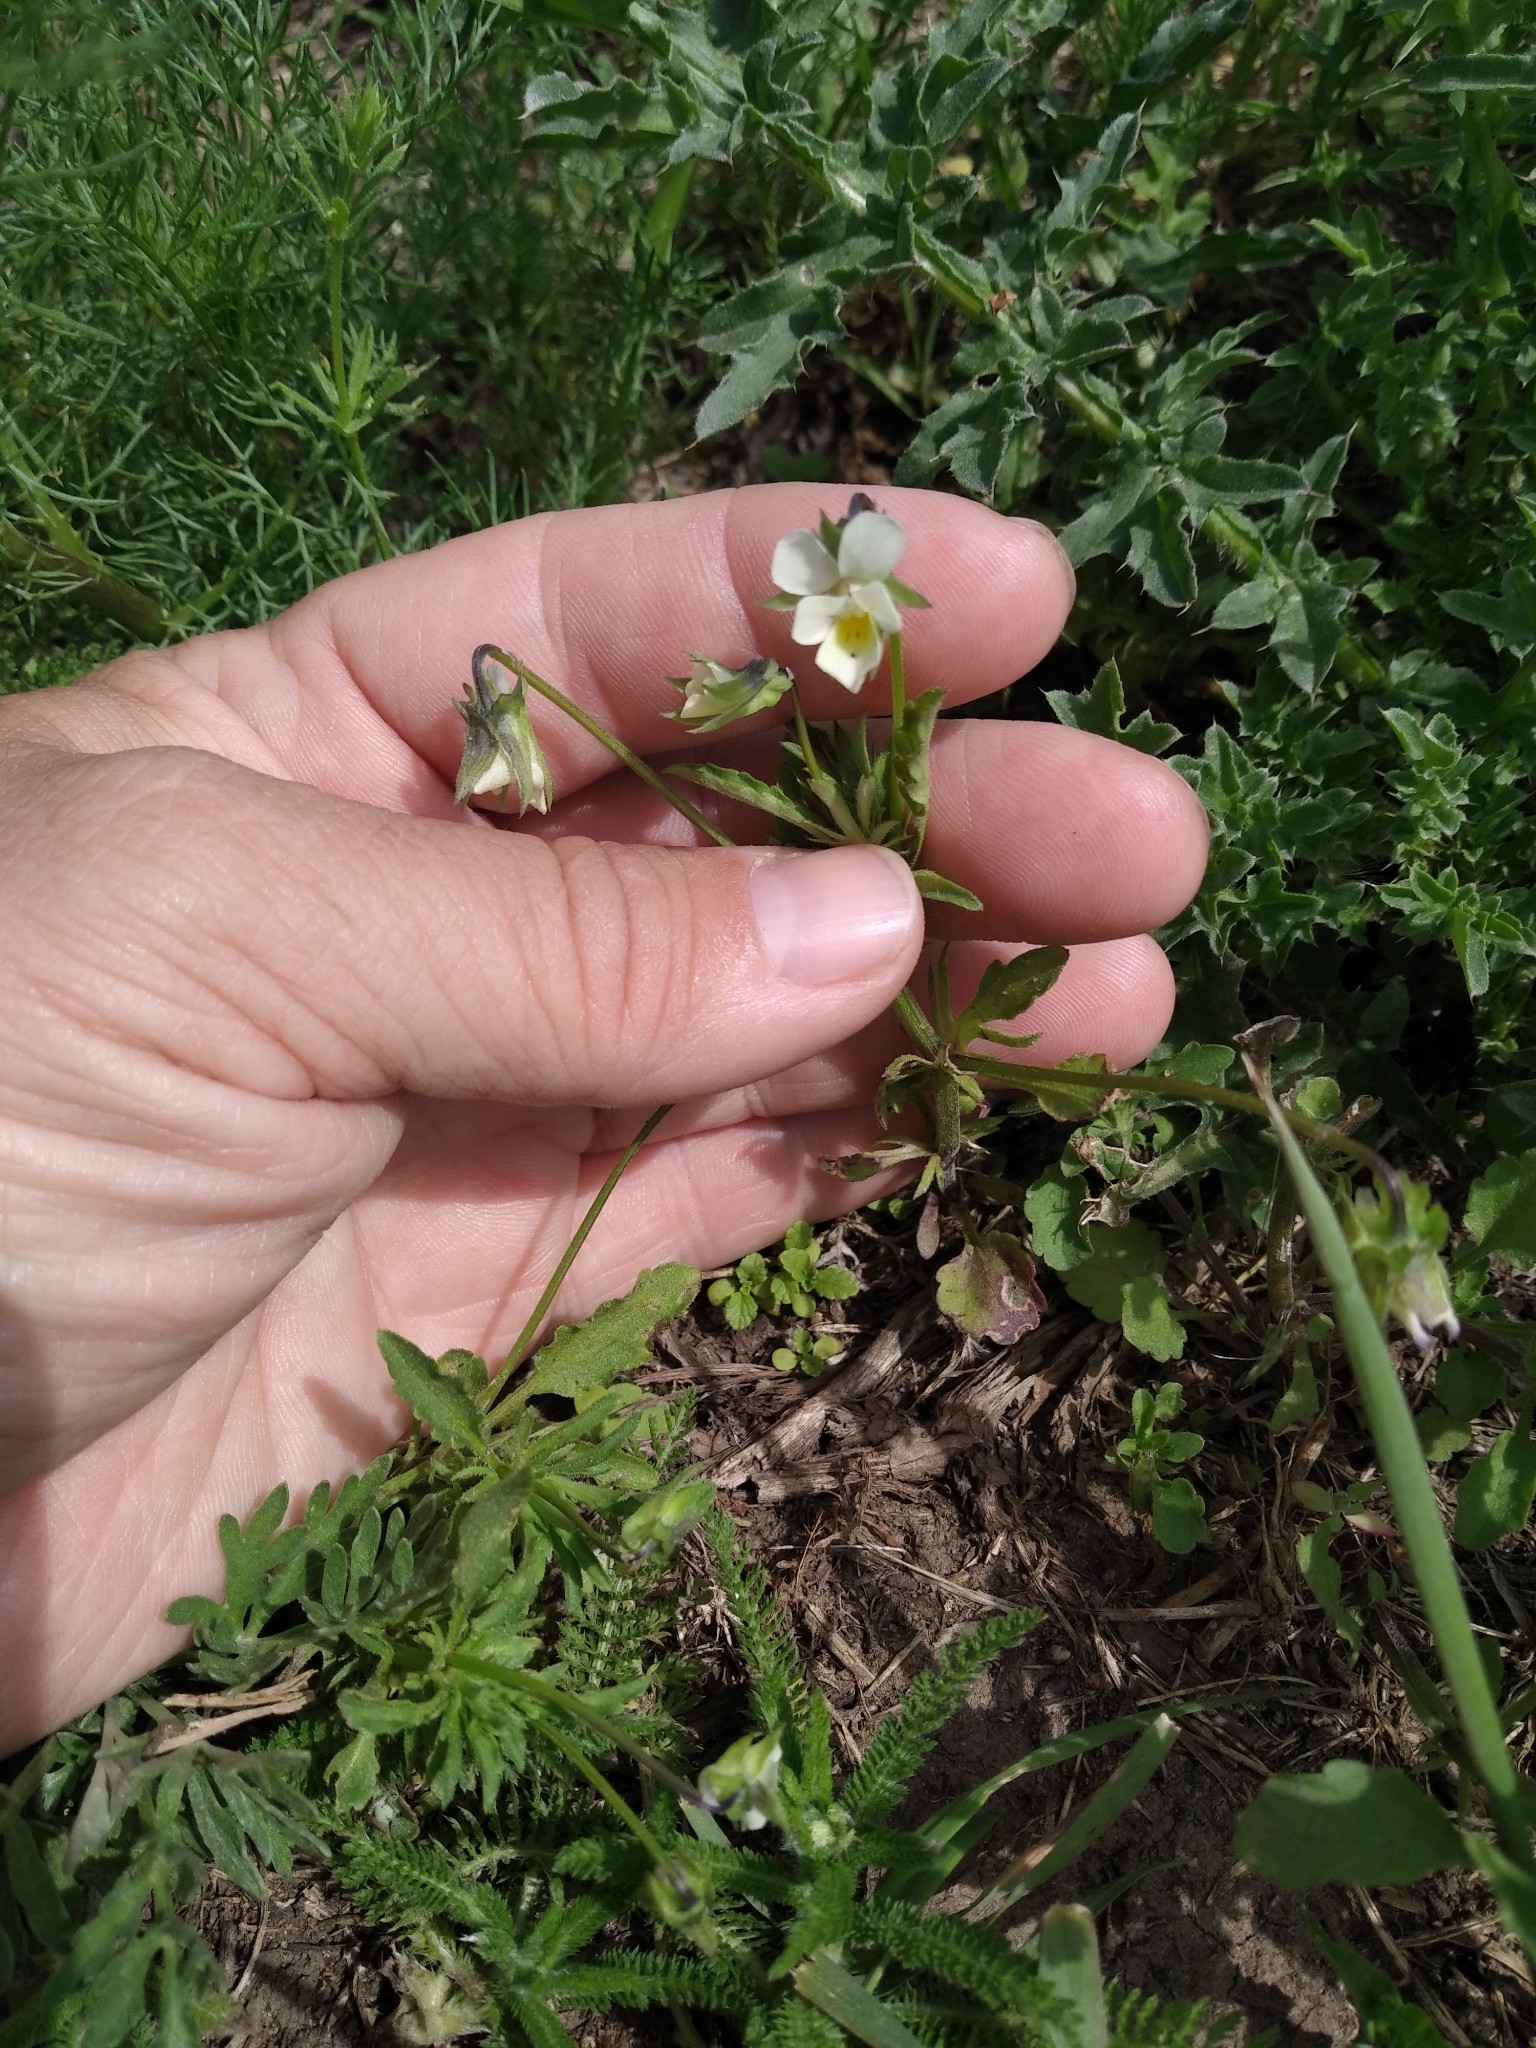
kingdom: Plantae
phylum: Tracheophyta
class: Magnoliopsida
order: Malpighiales
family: Violaceae
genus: Viola
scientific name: Viola arvensis
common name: Field pansy
